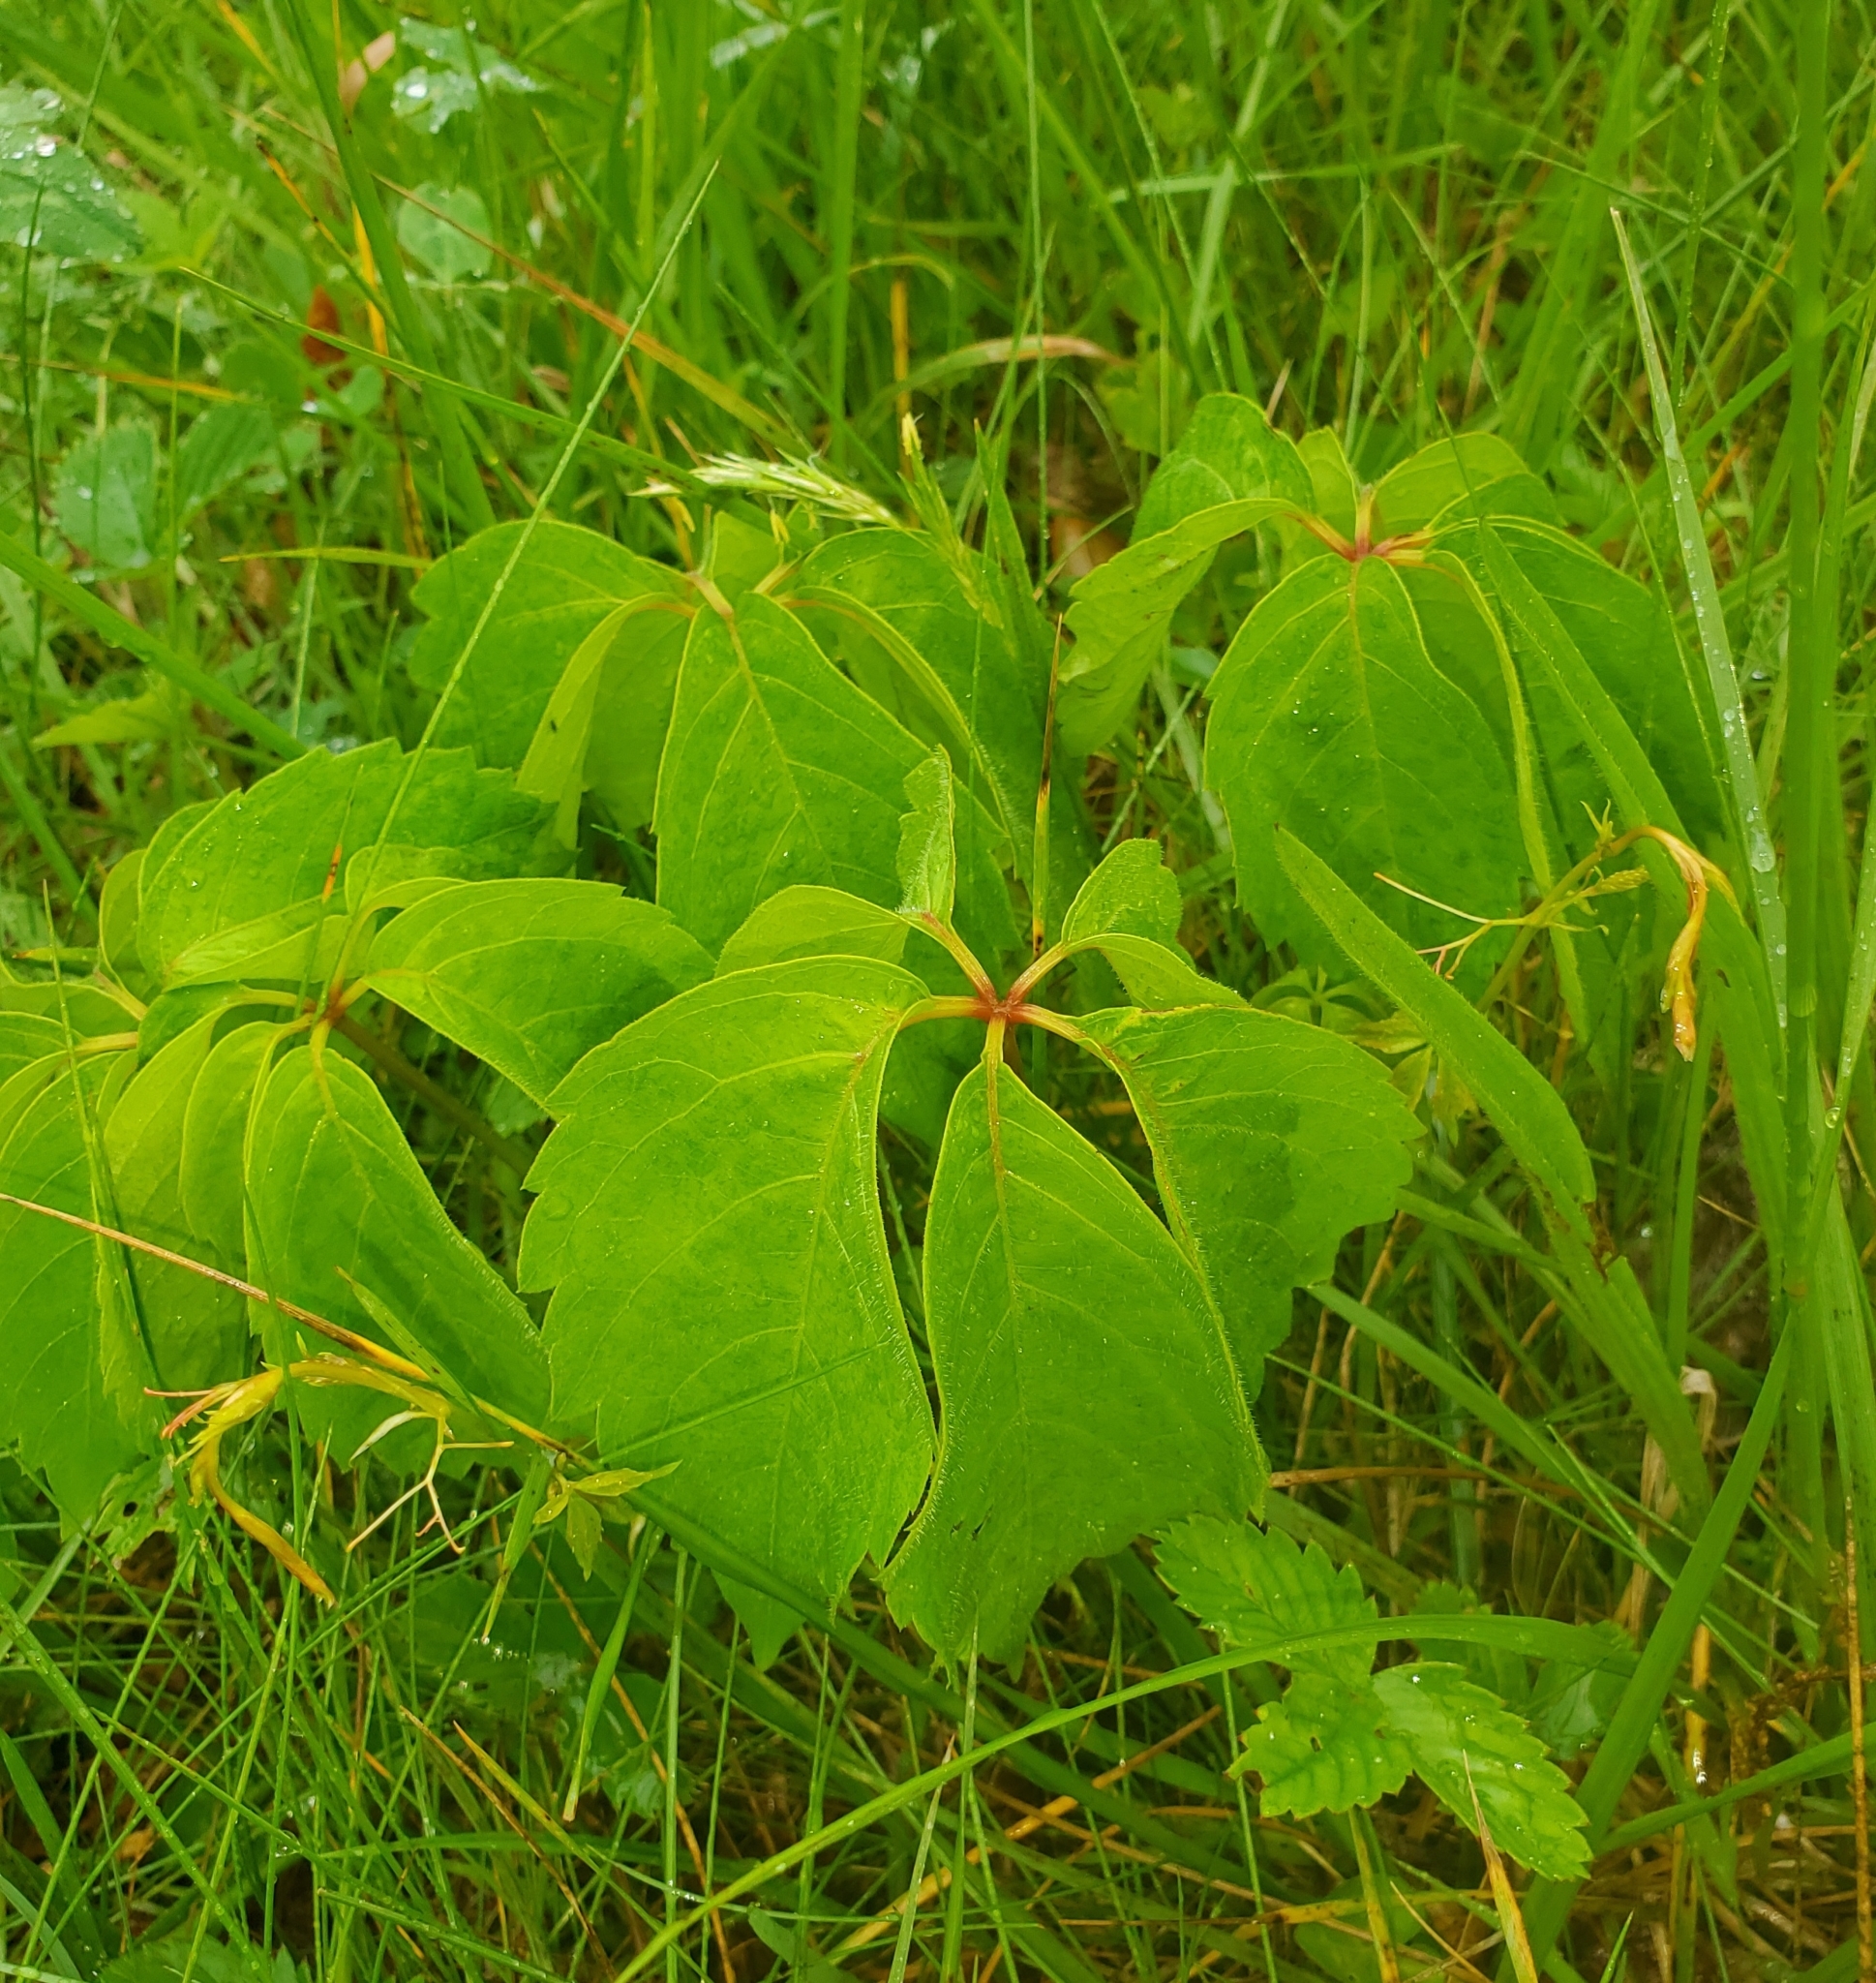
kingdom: Plantae
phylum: Tracheophyta
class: Magnoliopsida
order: Vitales
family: Vitaceae
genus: Parthenocissus
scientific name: Parthenocissus quinquefolia
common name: Virginia-creeper
